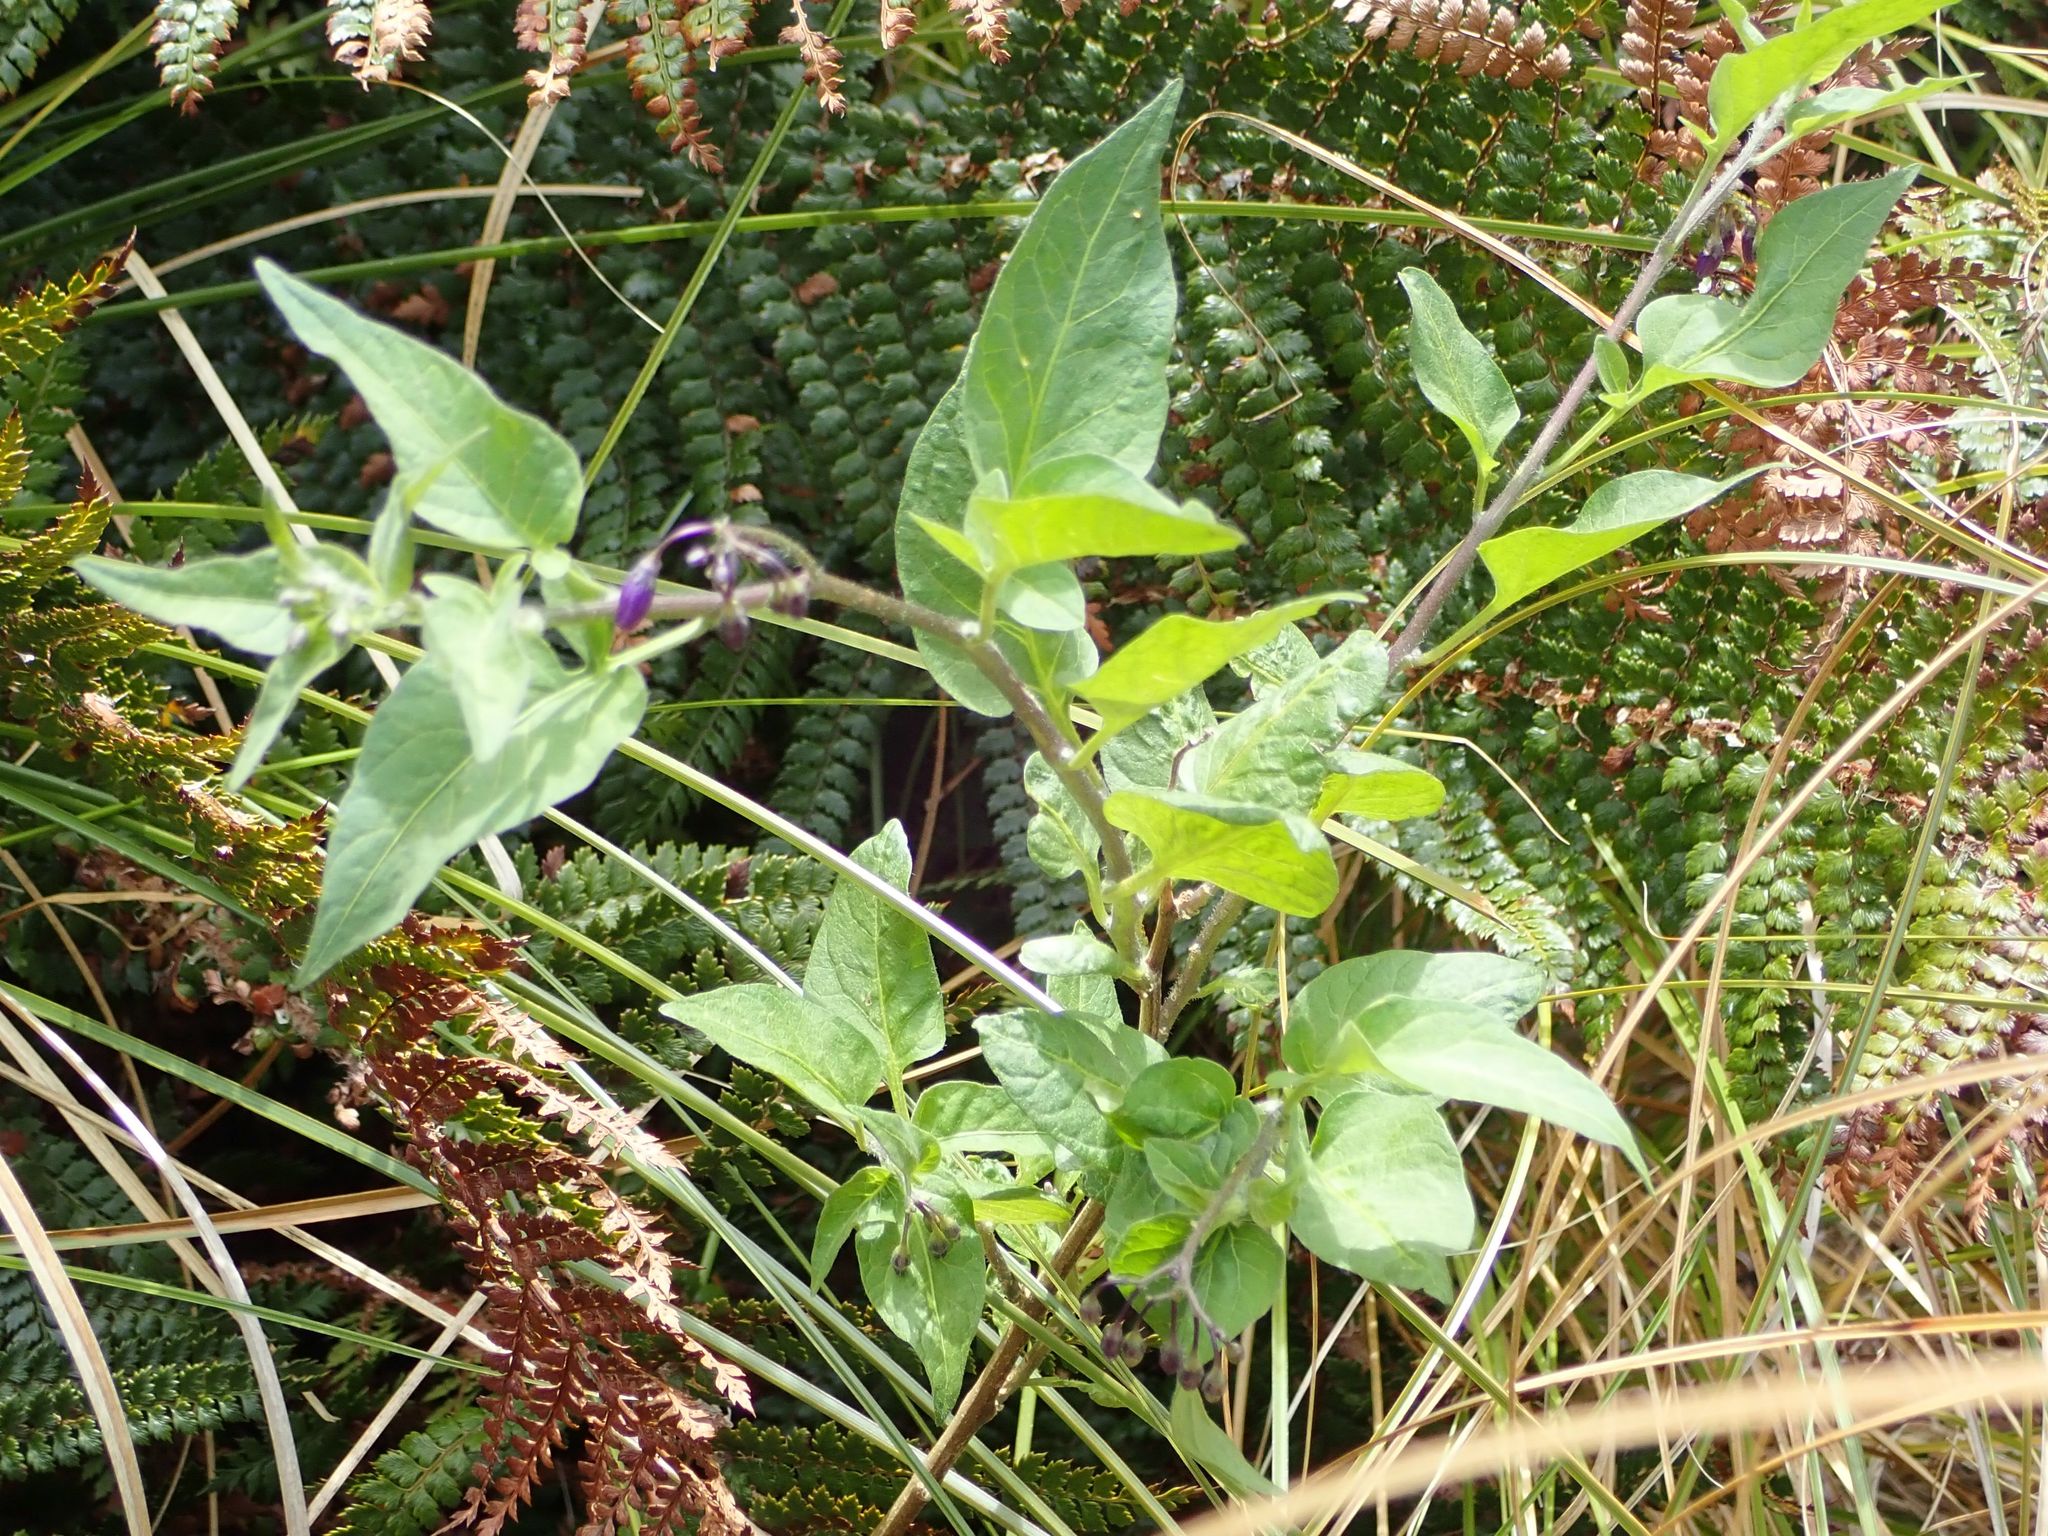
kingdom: Plantae
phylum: Tracheophyta
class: Magnoliopsida
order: Solanales
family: Solanaceae
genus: Solanum
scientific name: Solanum dulcamara
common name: Climbing nightshade
